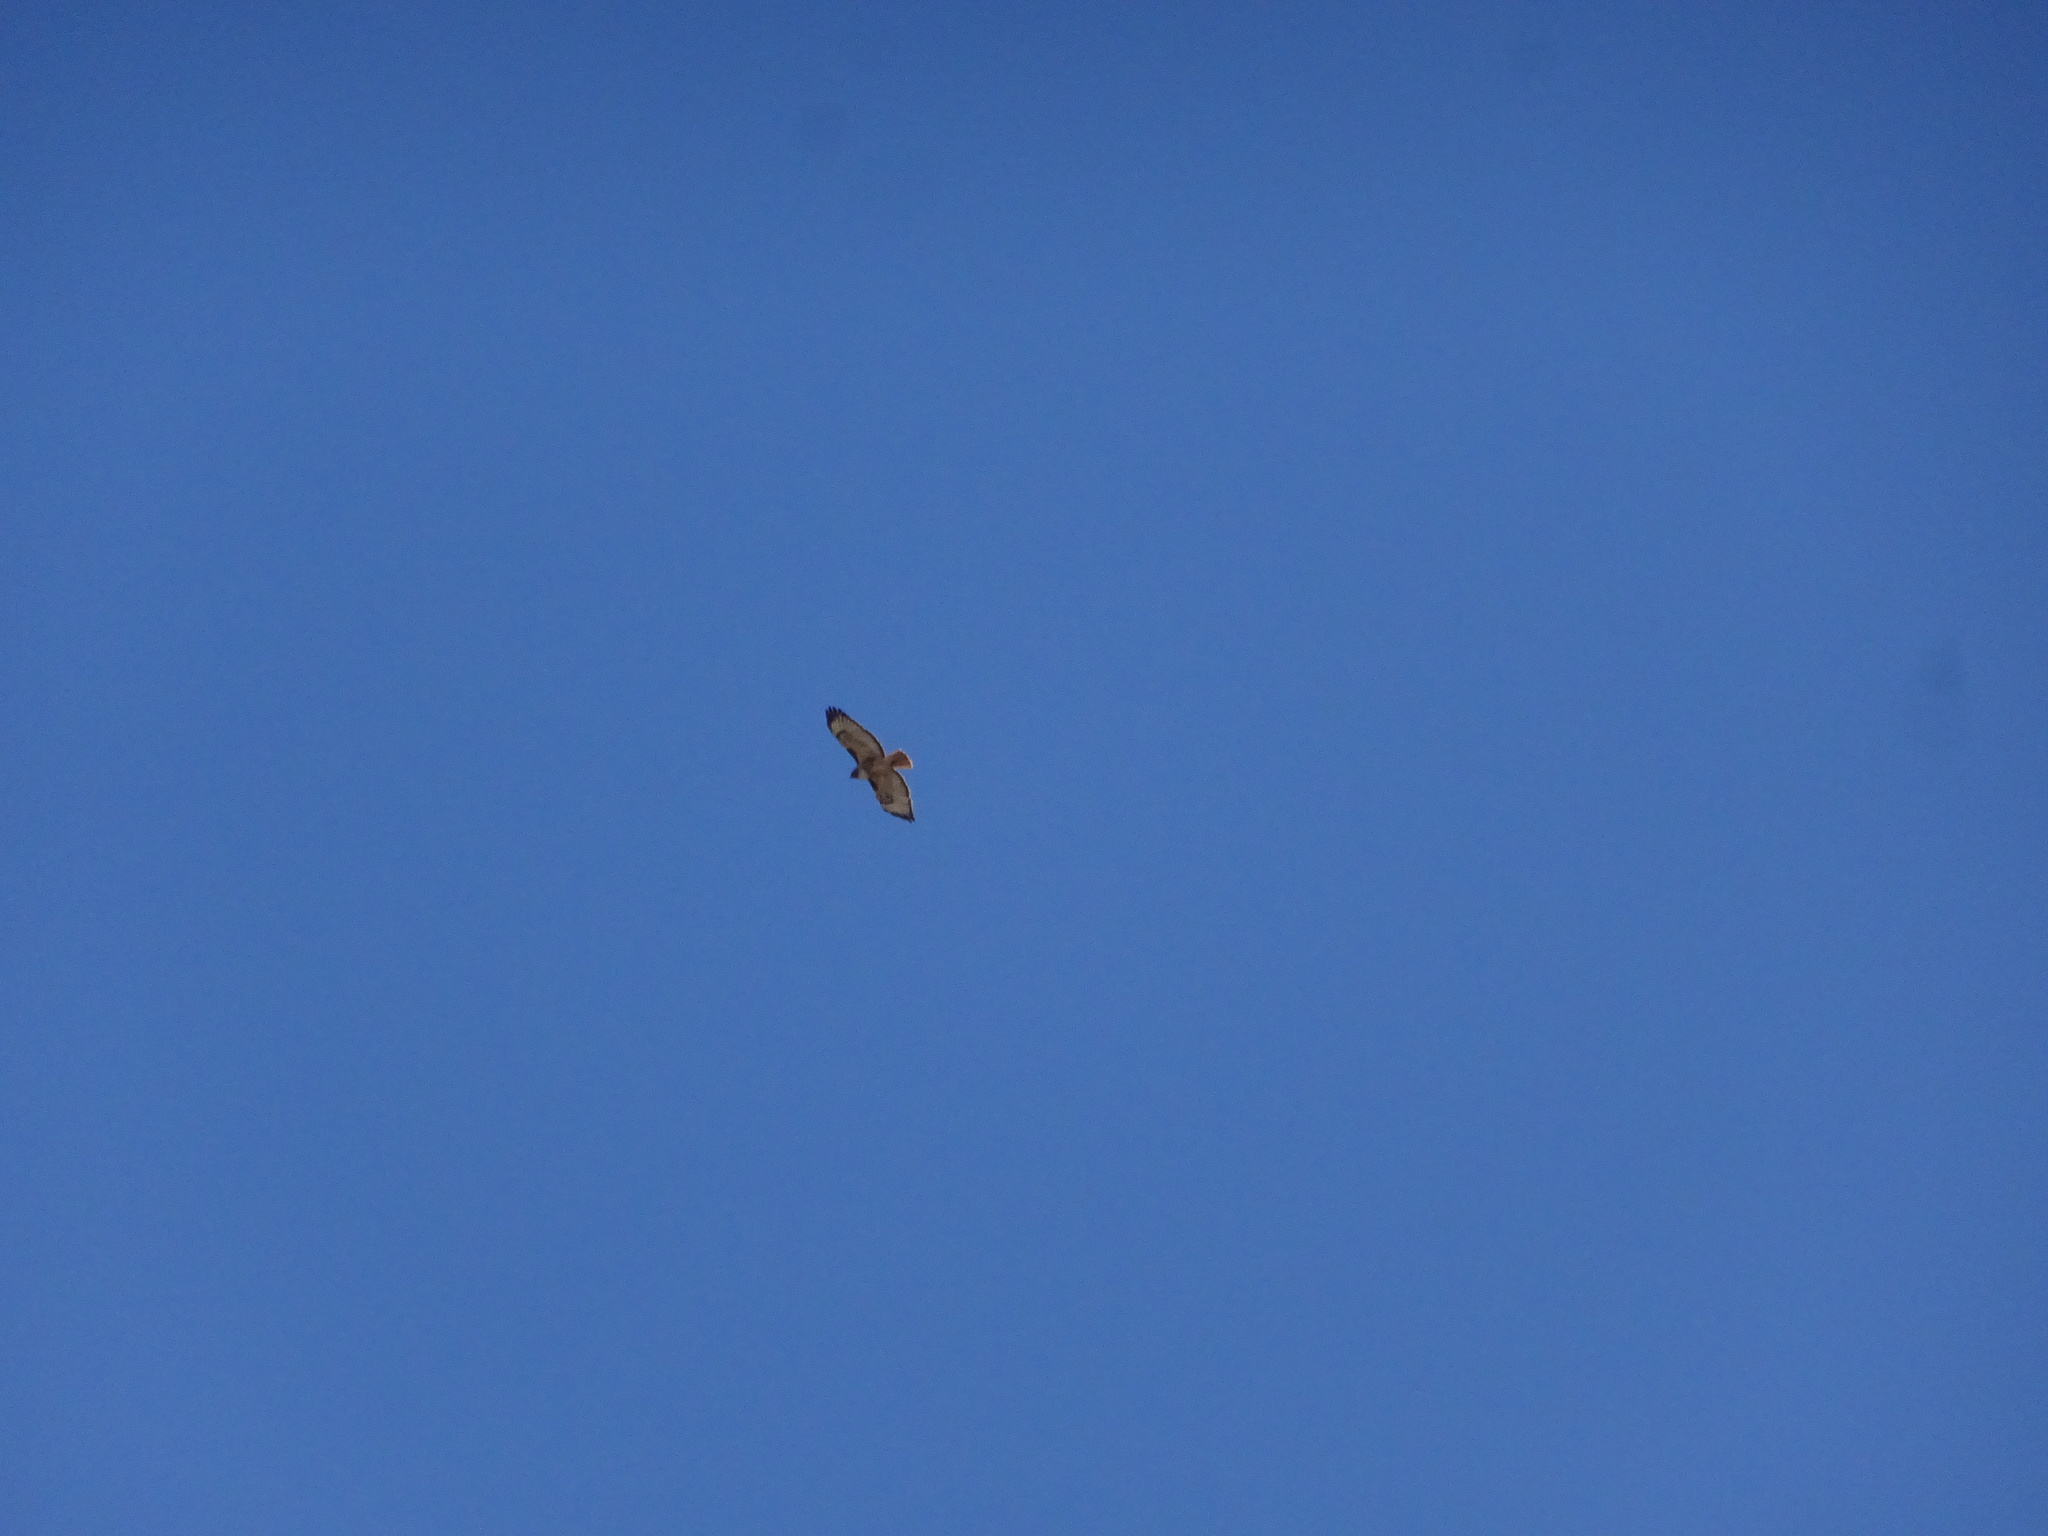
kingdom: Animalia
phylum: Chordata
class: Aves
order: Accipitriformes
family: Accipitridae
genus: Buteo
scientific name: Buteo jamaicensis
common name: Red-tailed hawk
